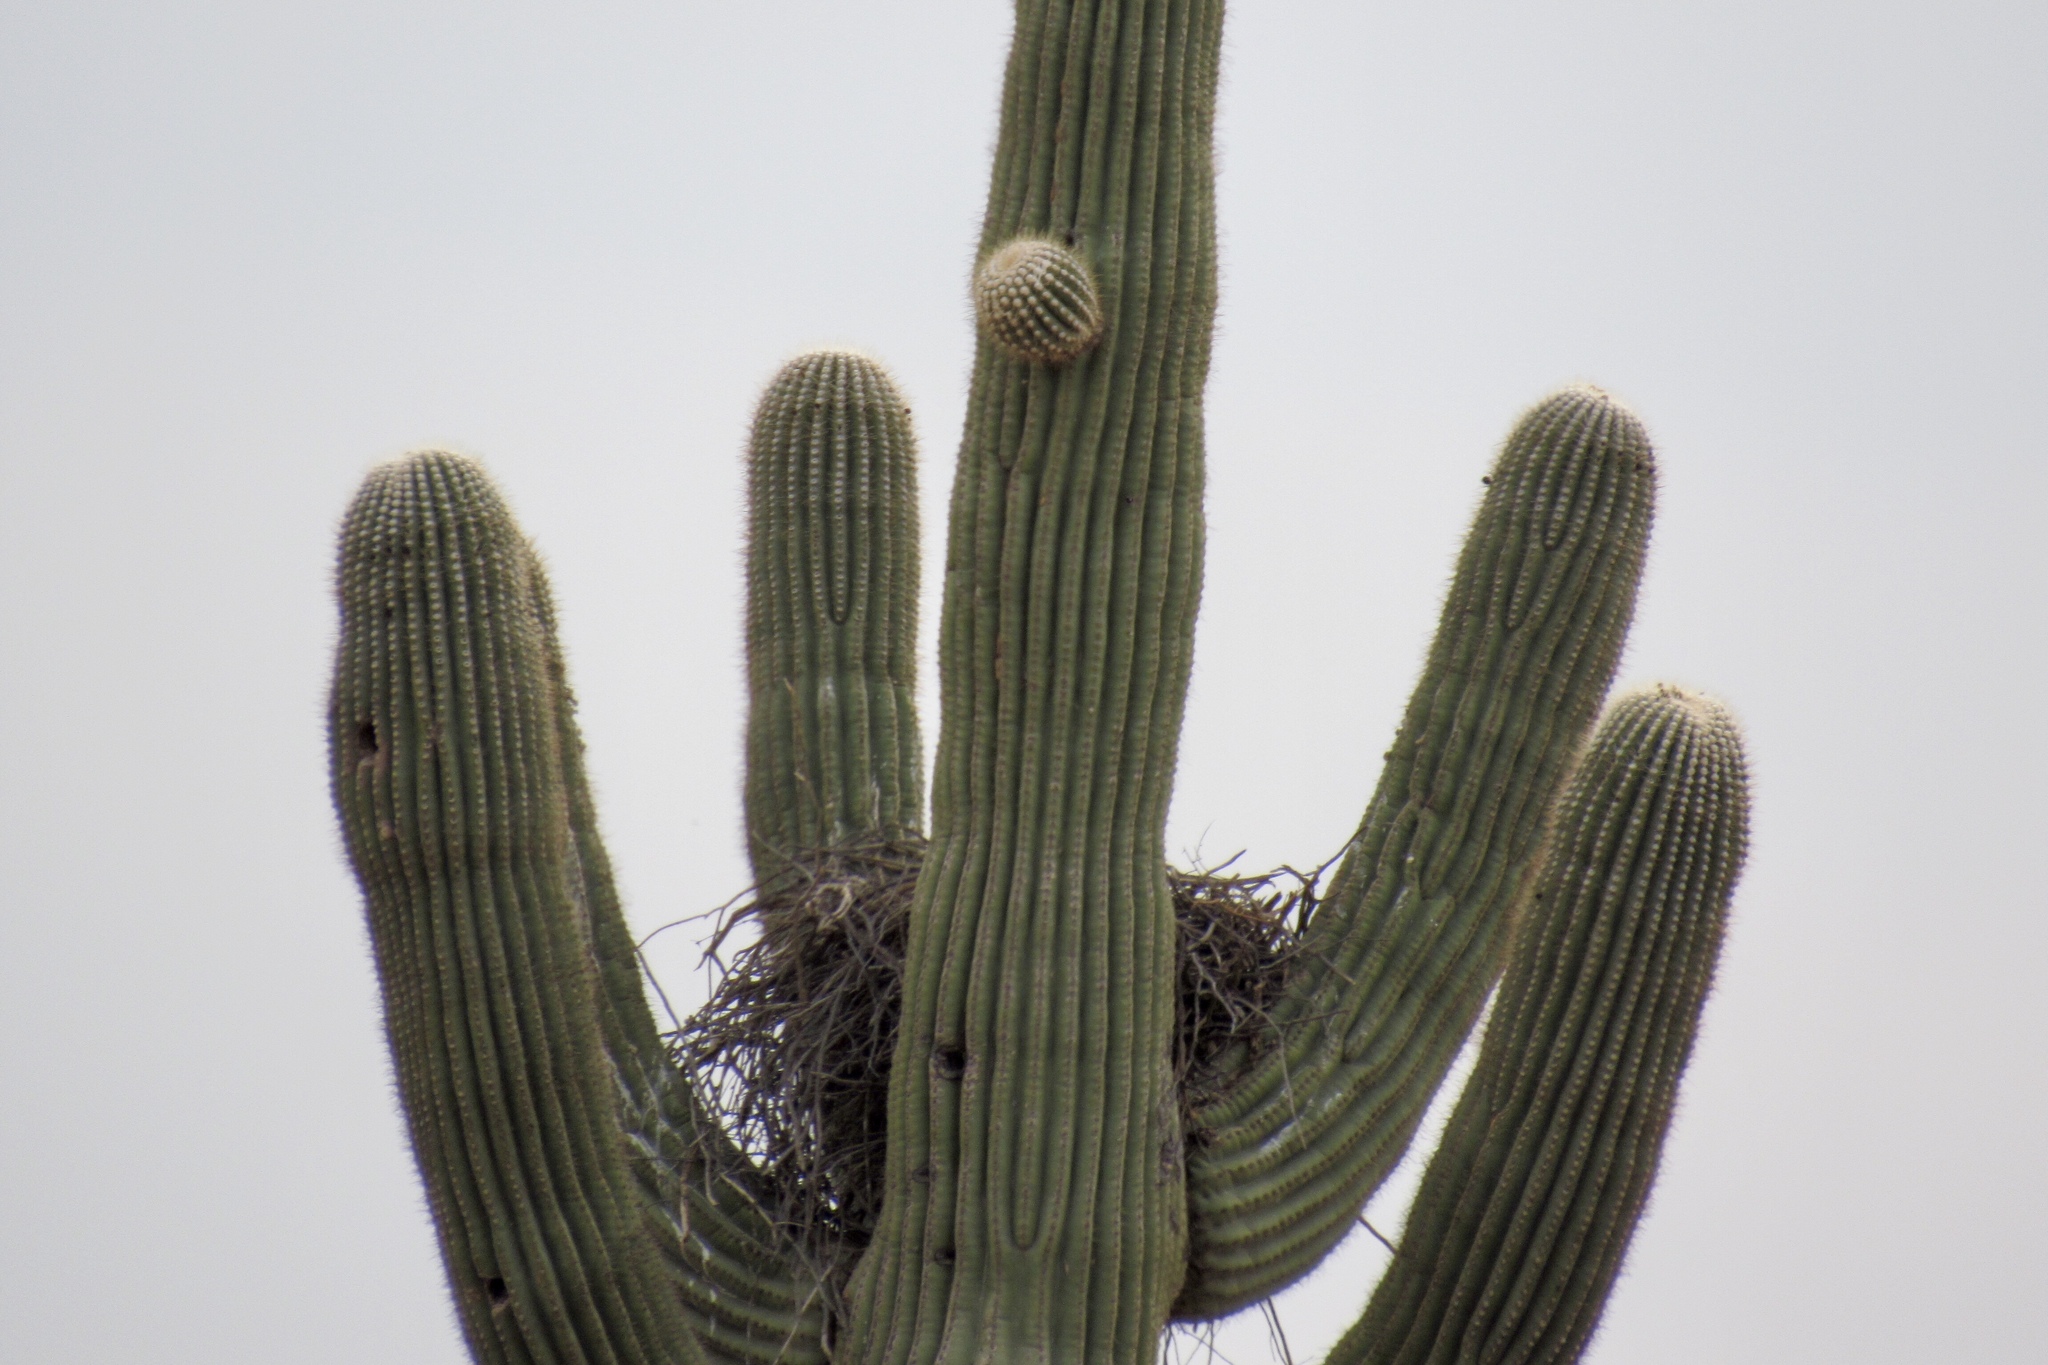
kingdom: Plantae
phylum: Tracheophyta
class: Magnoliopsida
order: Caryophyllales
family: Cactaceae
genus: Carnegiea
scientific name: Carnegiea gigantea
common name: Saguaro
